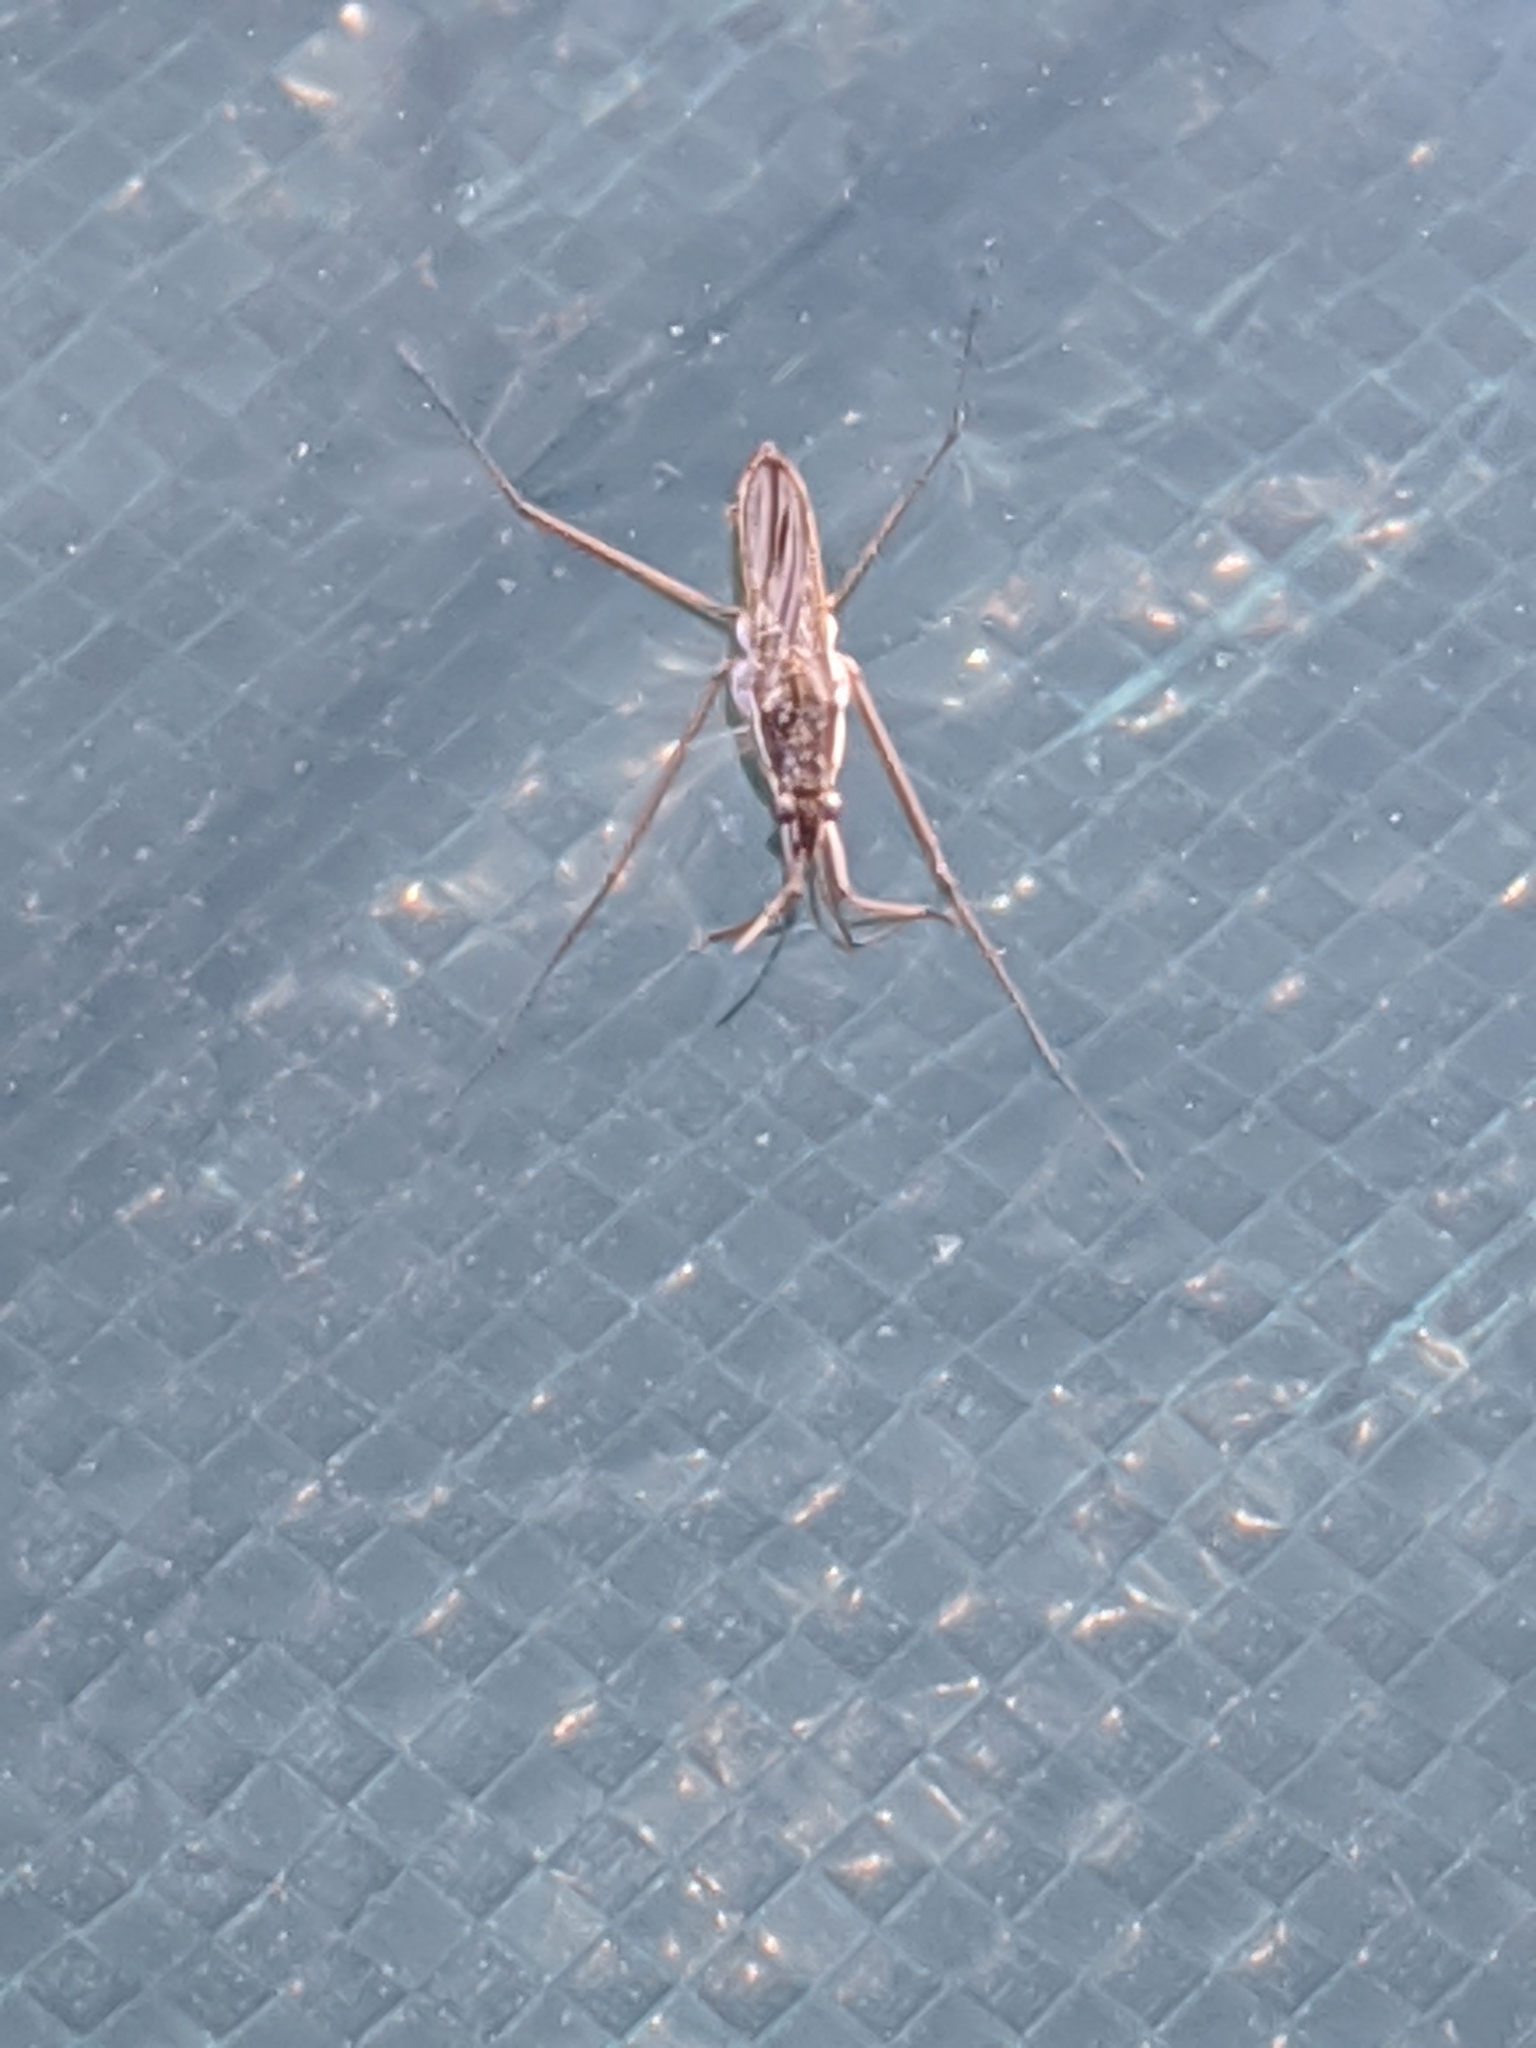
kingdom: Animalia
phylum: Arthropoda
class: Insecta
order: Hemiptera
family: Gerridae
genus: Gerris
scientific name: Gerris
